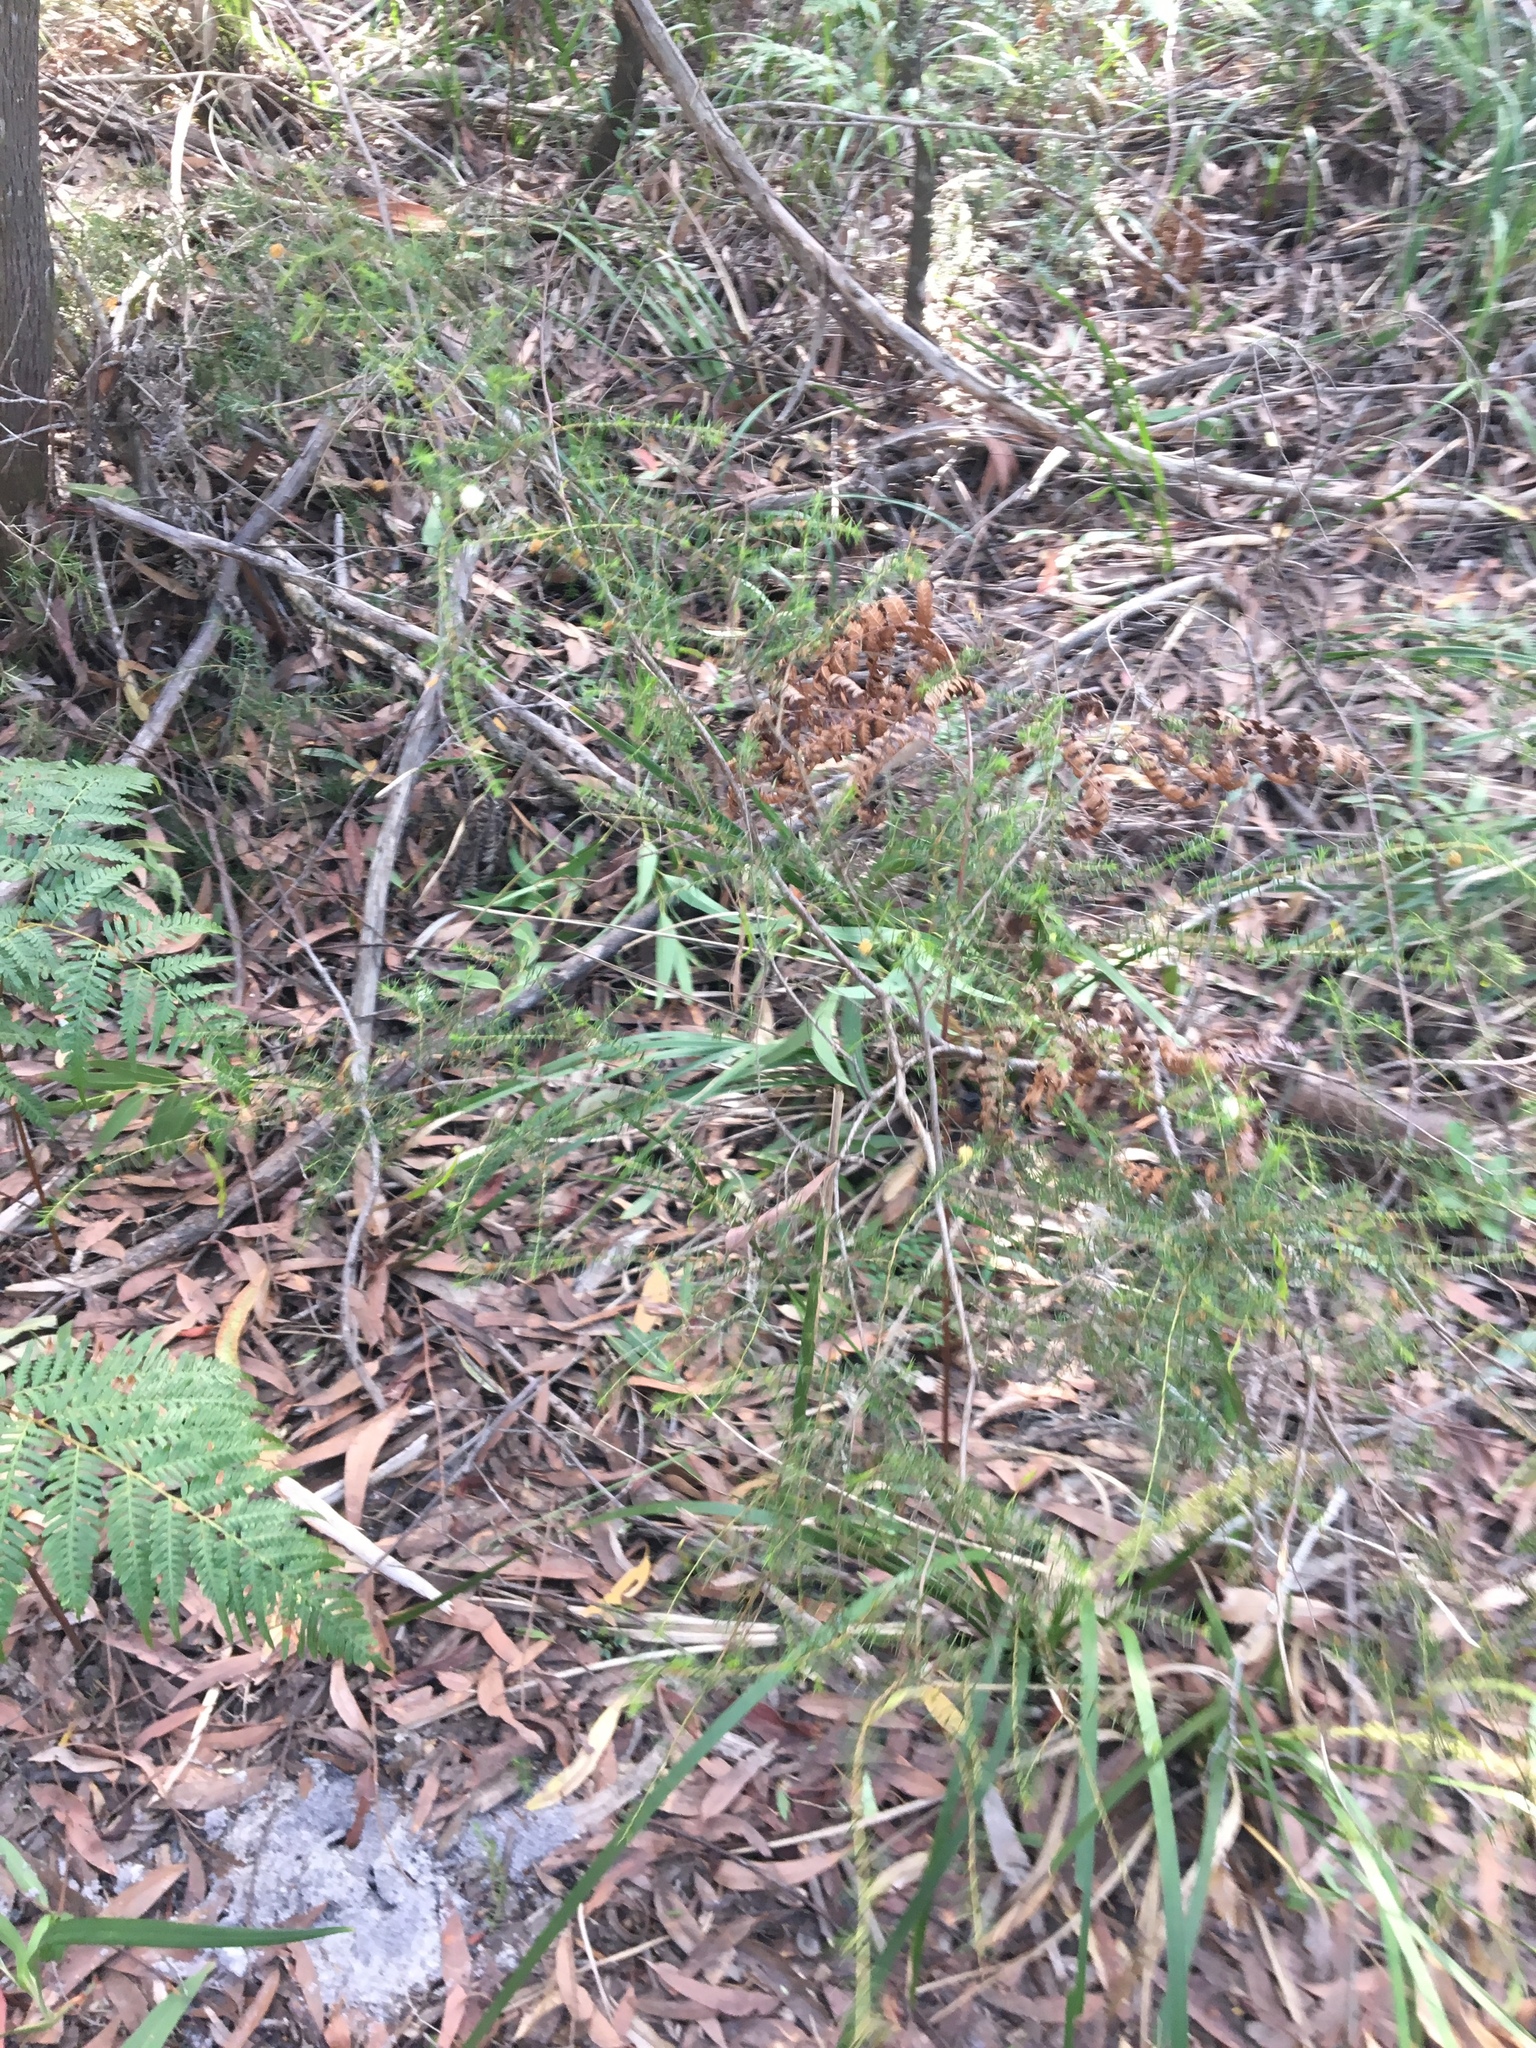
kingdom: Plantae
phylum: Tracheophyta
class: Magnoliopsida
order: Fabales
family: Fabaceae
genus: Acacia
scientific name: Acacia ulicifolia
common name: Juniper wattle
